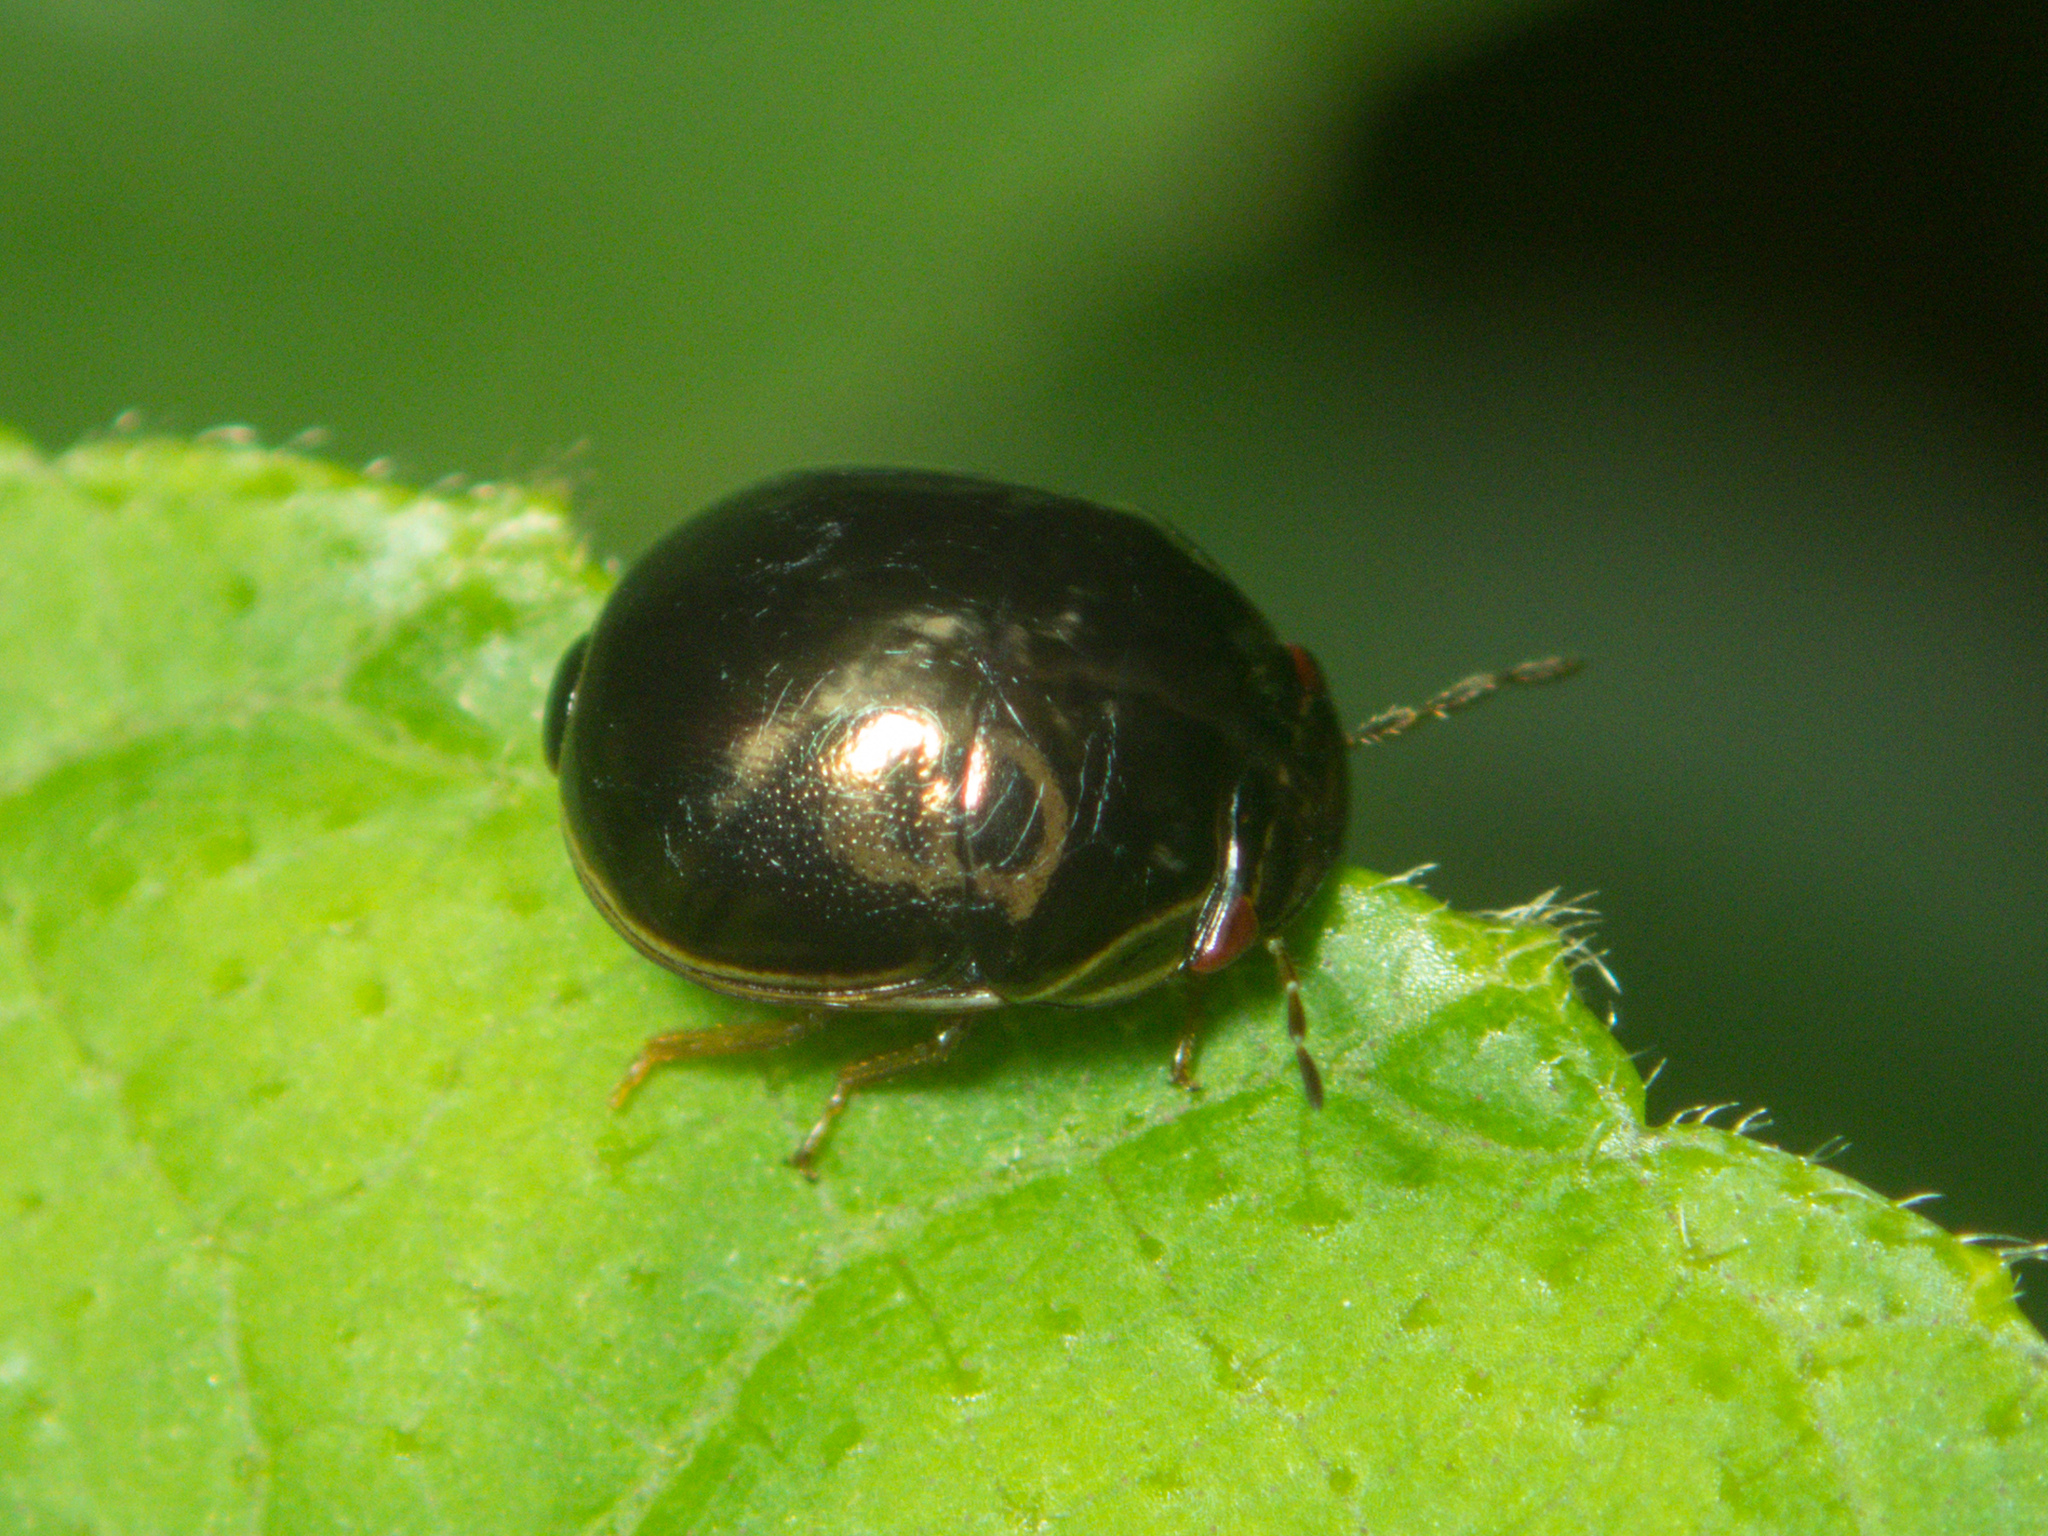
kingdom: Animalia
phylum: Arthropoda
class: Insecta
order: Hemiptera
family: Plataspidae
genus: Brachyplatys
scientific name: Brachyplatys subaeneus
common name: Black bean bug
